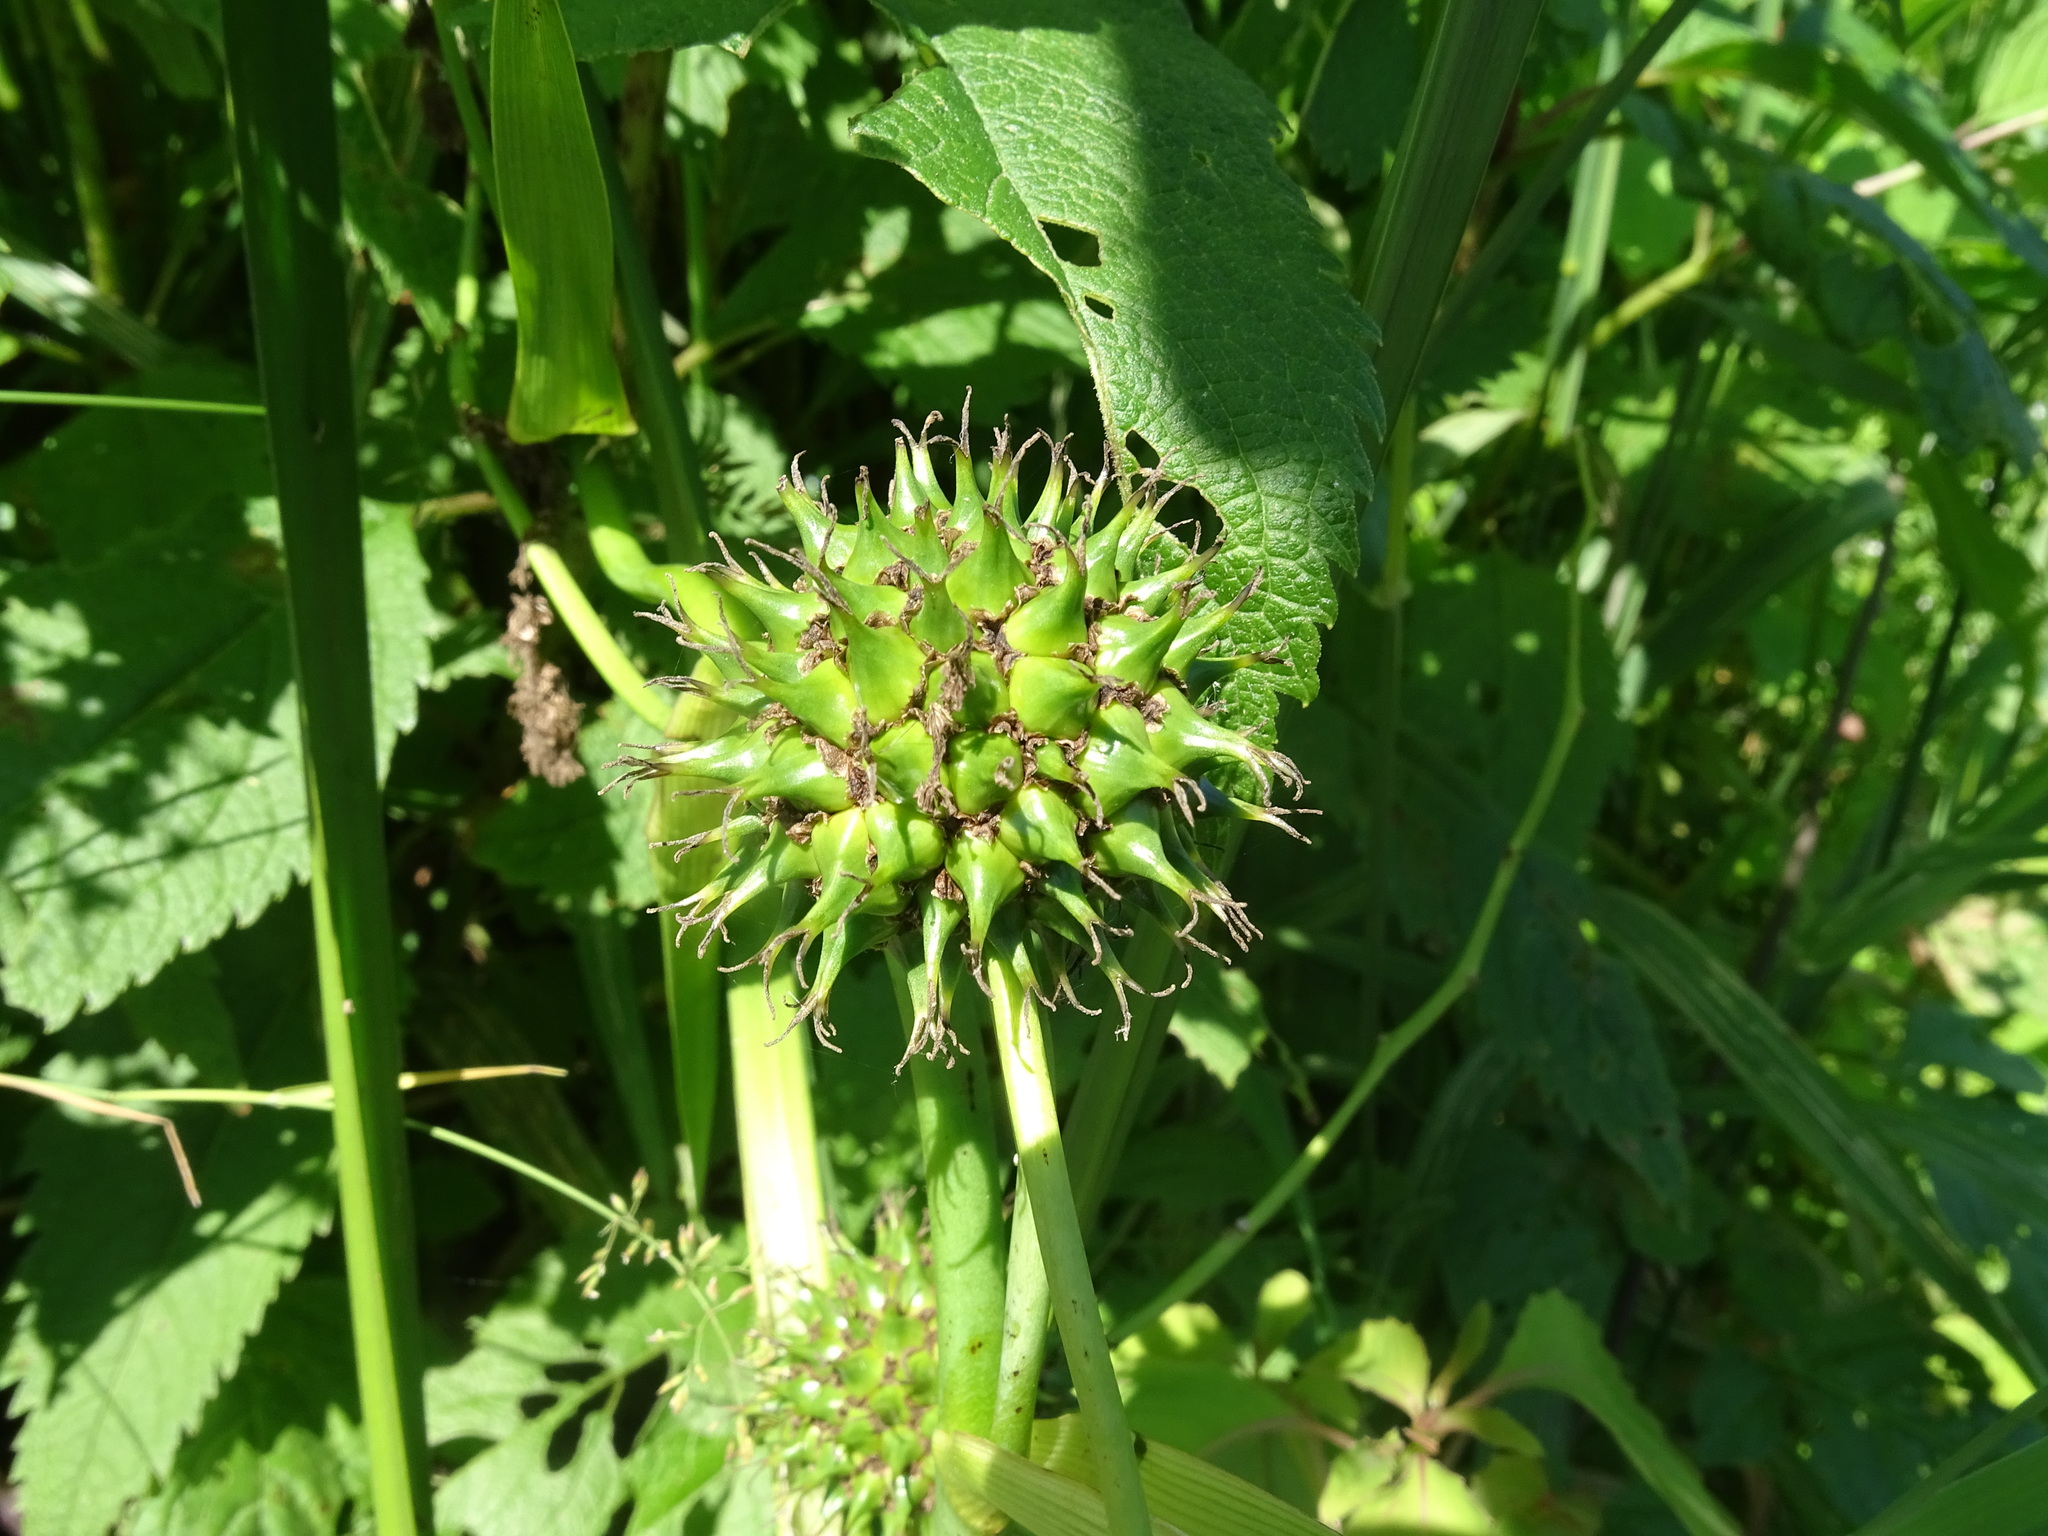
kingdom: Plantae
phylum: Tracheophyta
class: Liliopsida
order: Poales
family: Typhaceae
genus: Sparganium
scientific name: Sparganium eurycarpum
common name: Broad-fruited burreed
